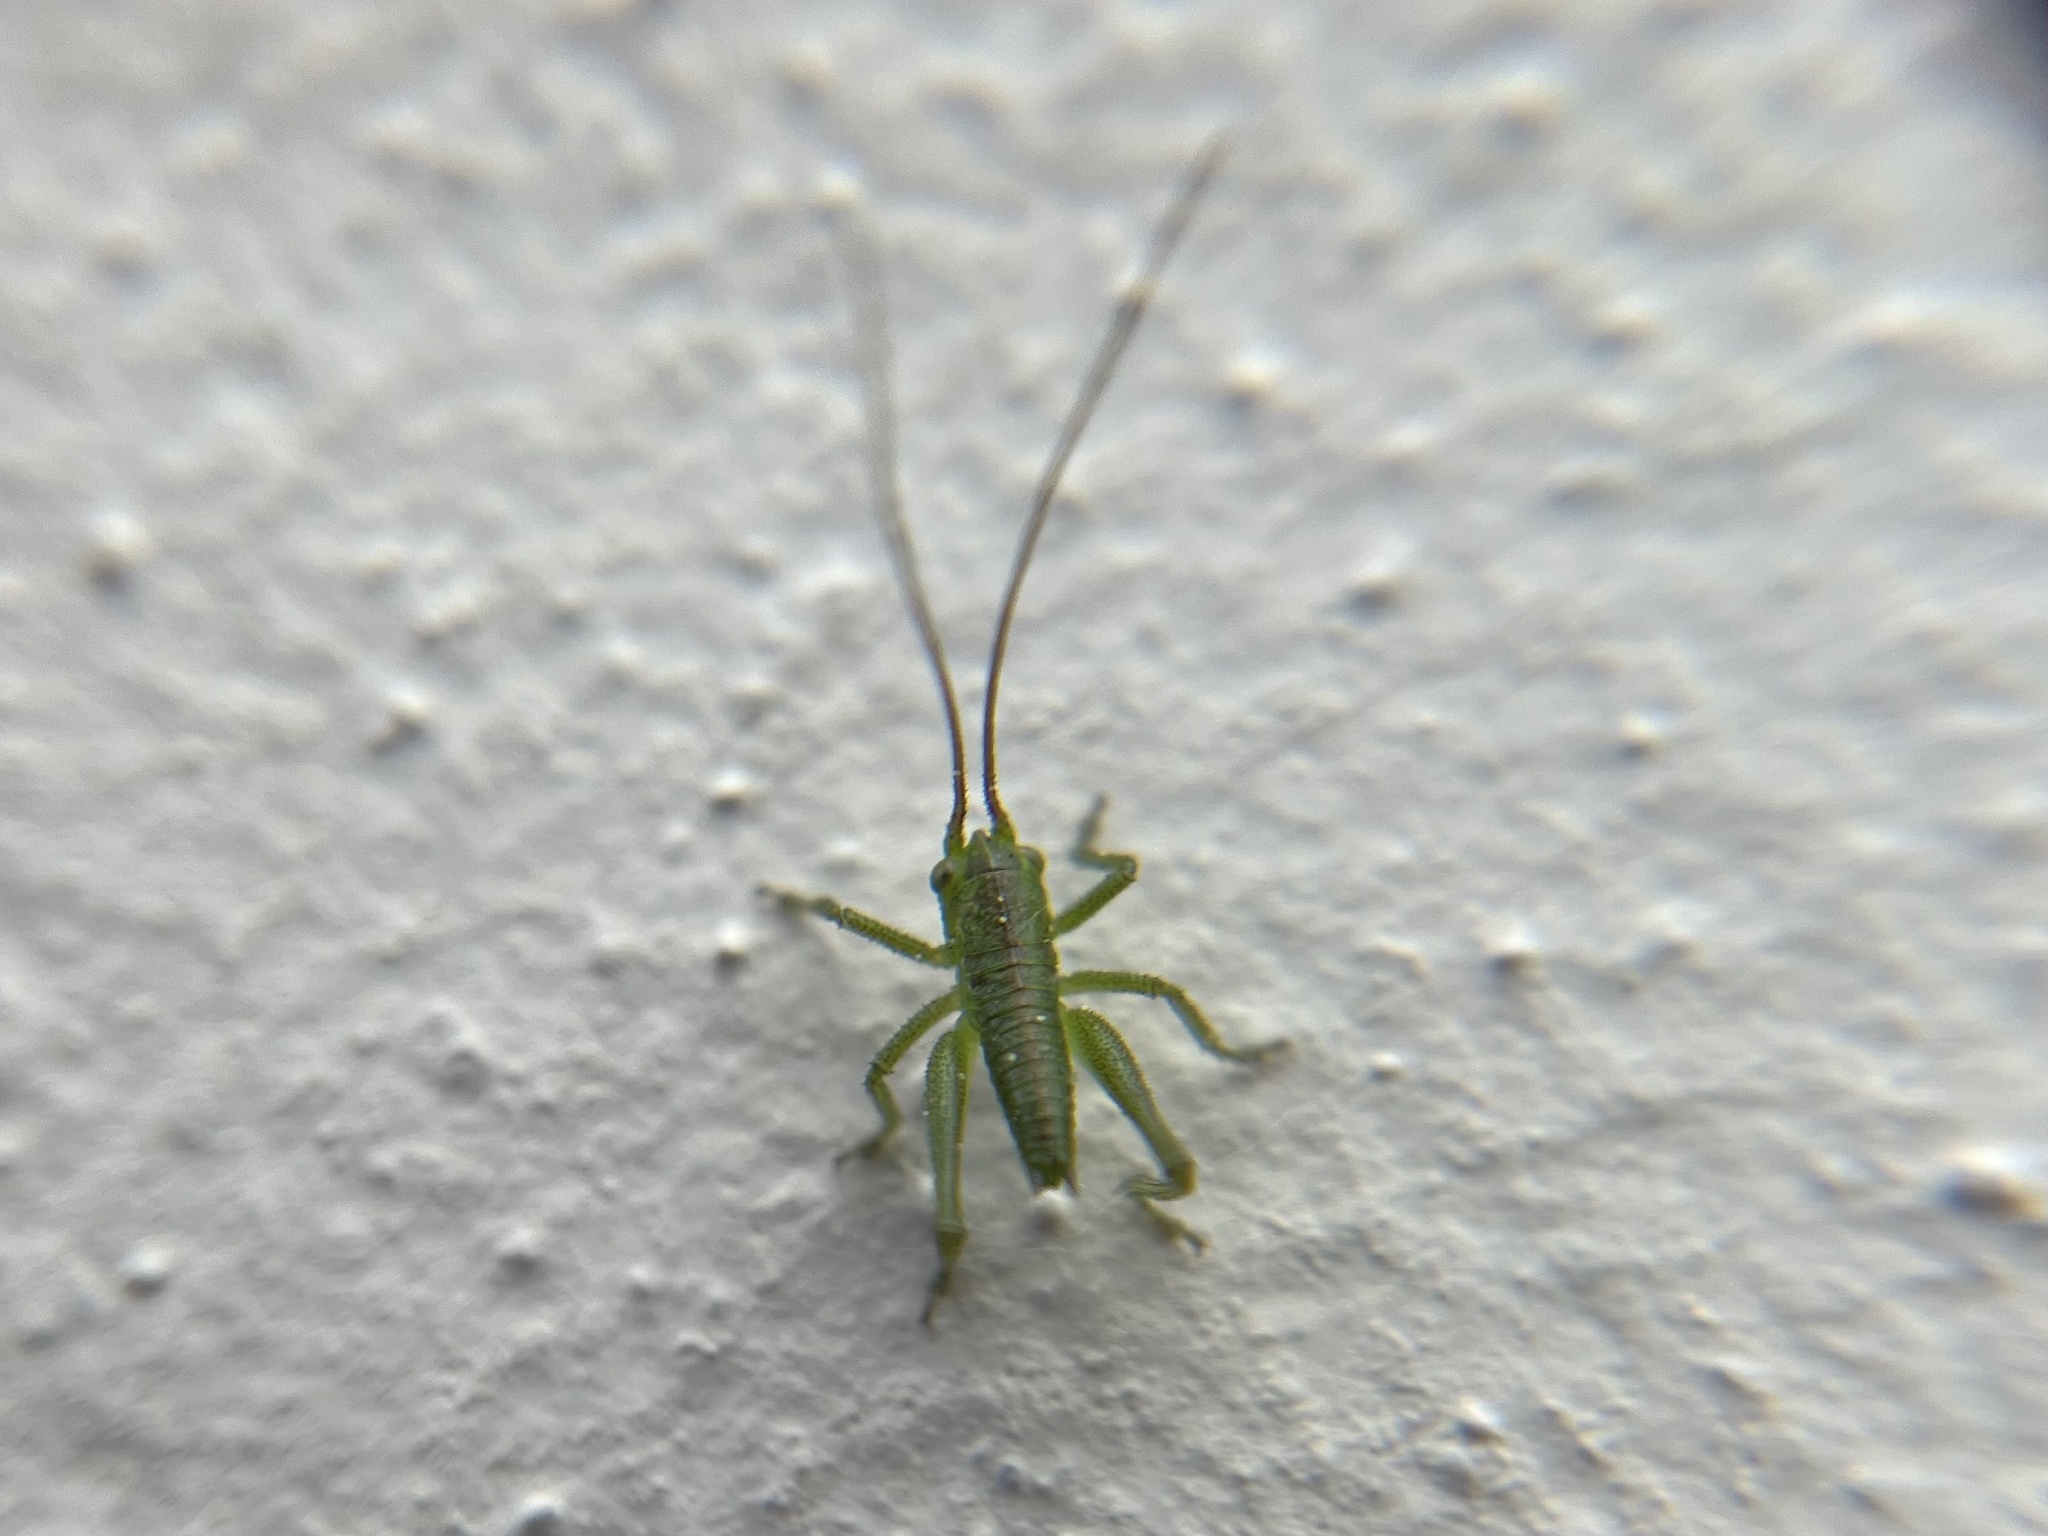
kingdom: Animalia
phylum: Arthropoda
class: Insecta
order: Orthoptera
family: Tettigoniidae
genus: Tettigonia
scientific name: Tettigonia viridissima
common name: Great green bush-cricket
